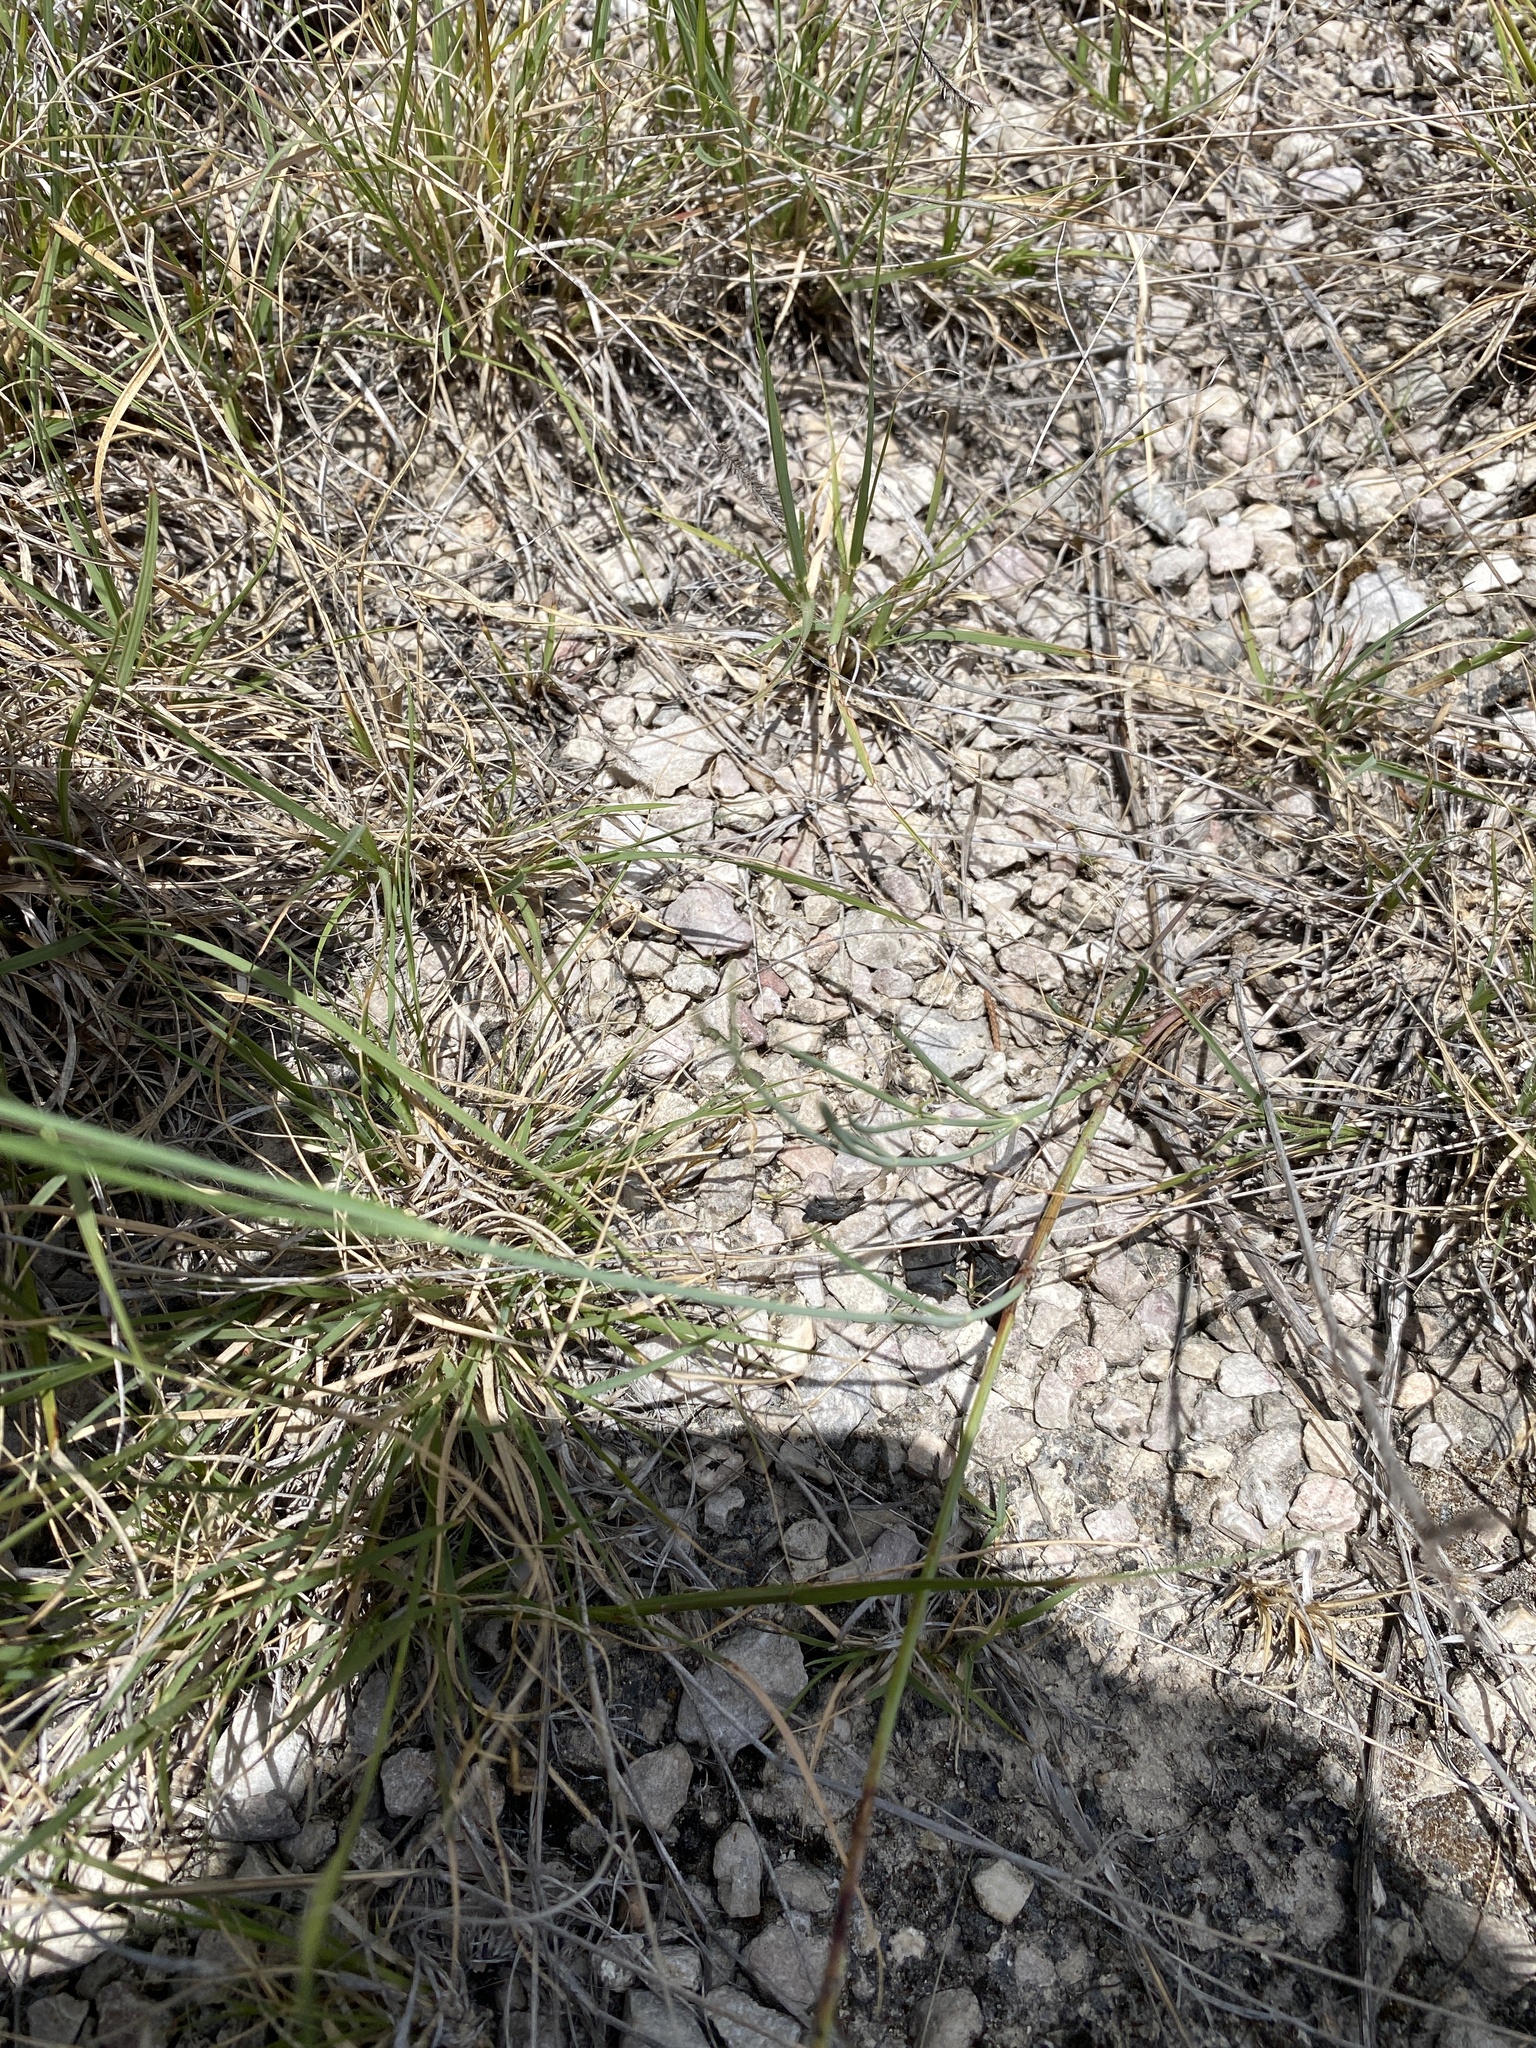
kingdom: Plantae
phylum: Tracheophyta
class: Magnoliopsida
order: Asterales
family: Asteraceae
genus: Thelesperma
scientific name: Thelesperma simplicifolium
